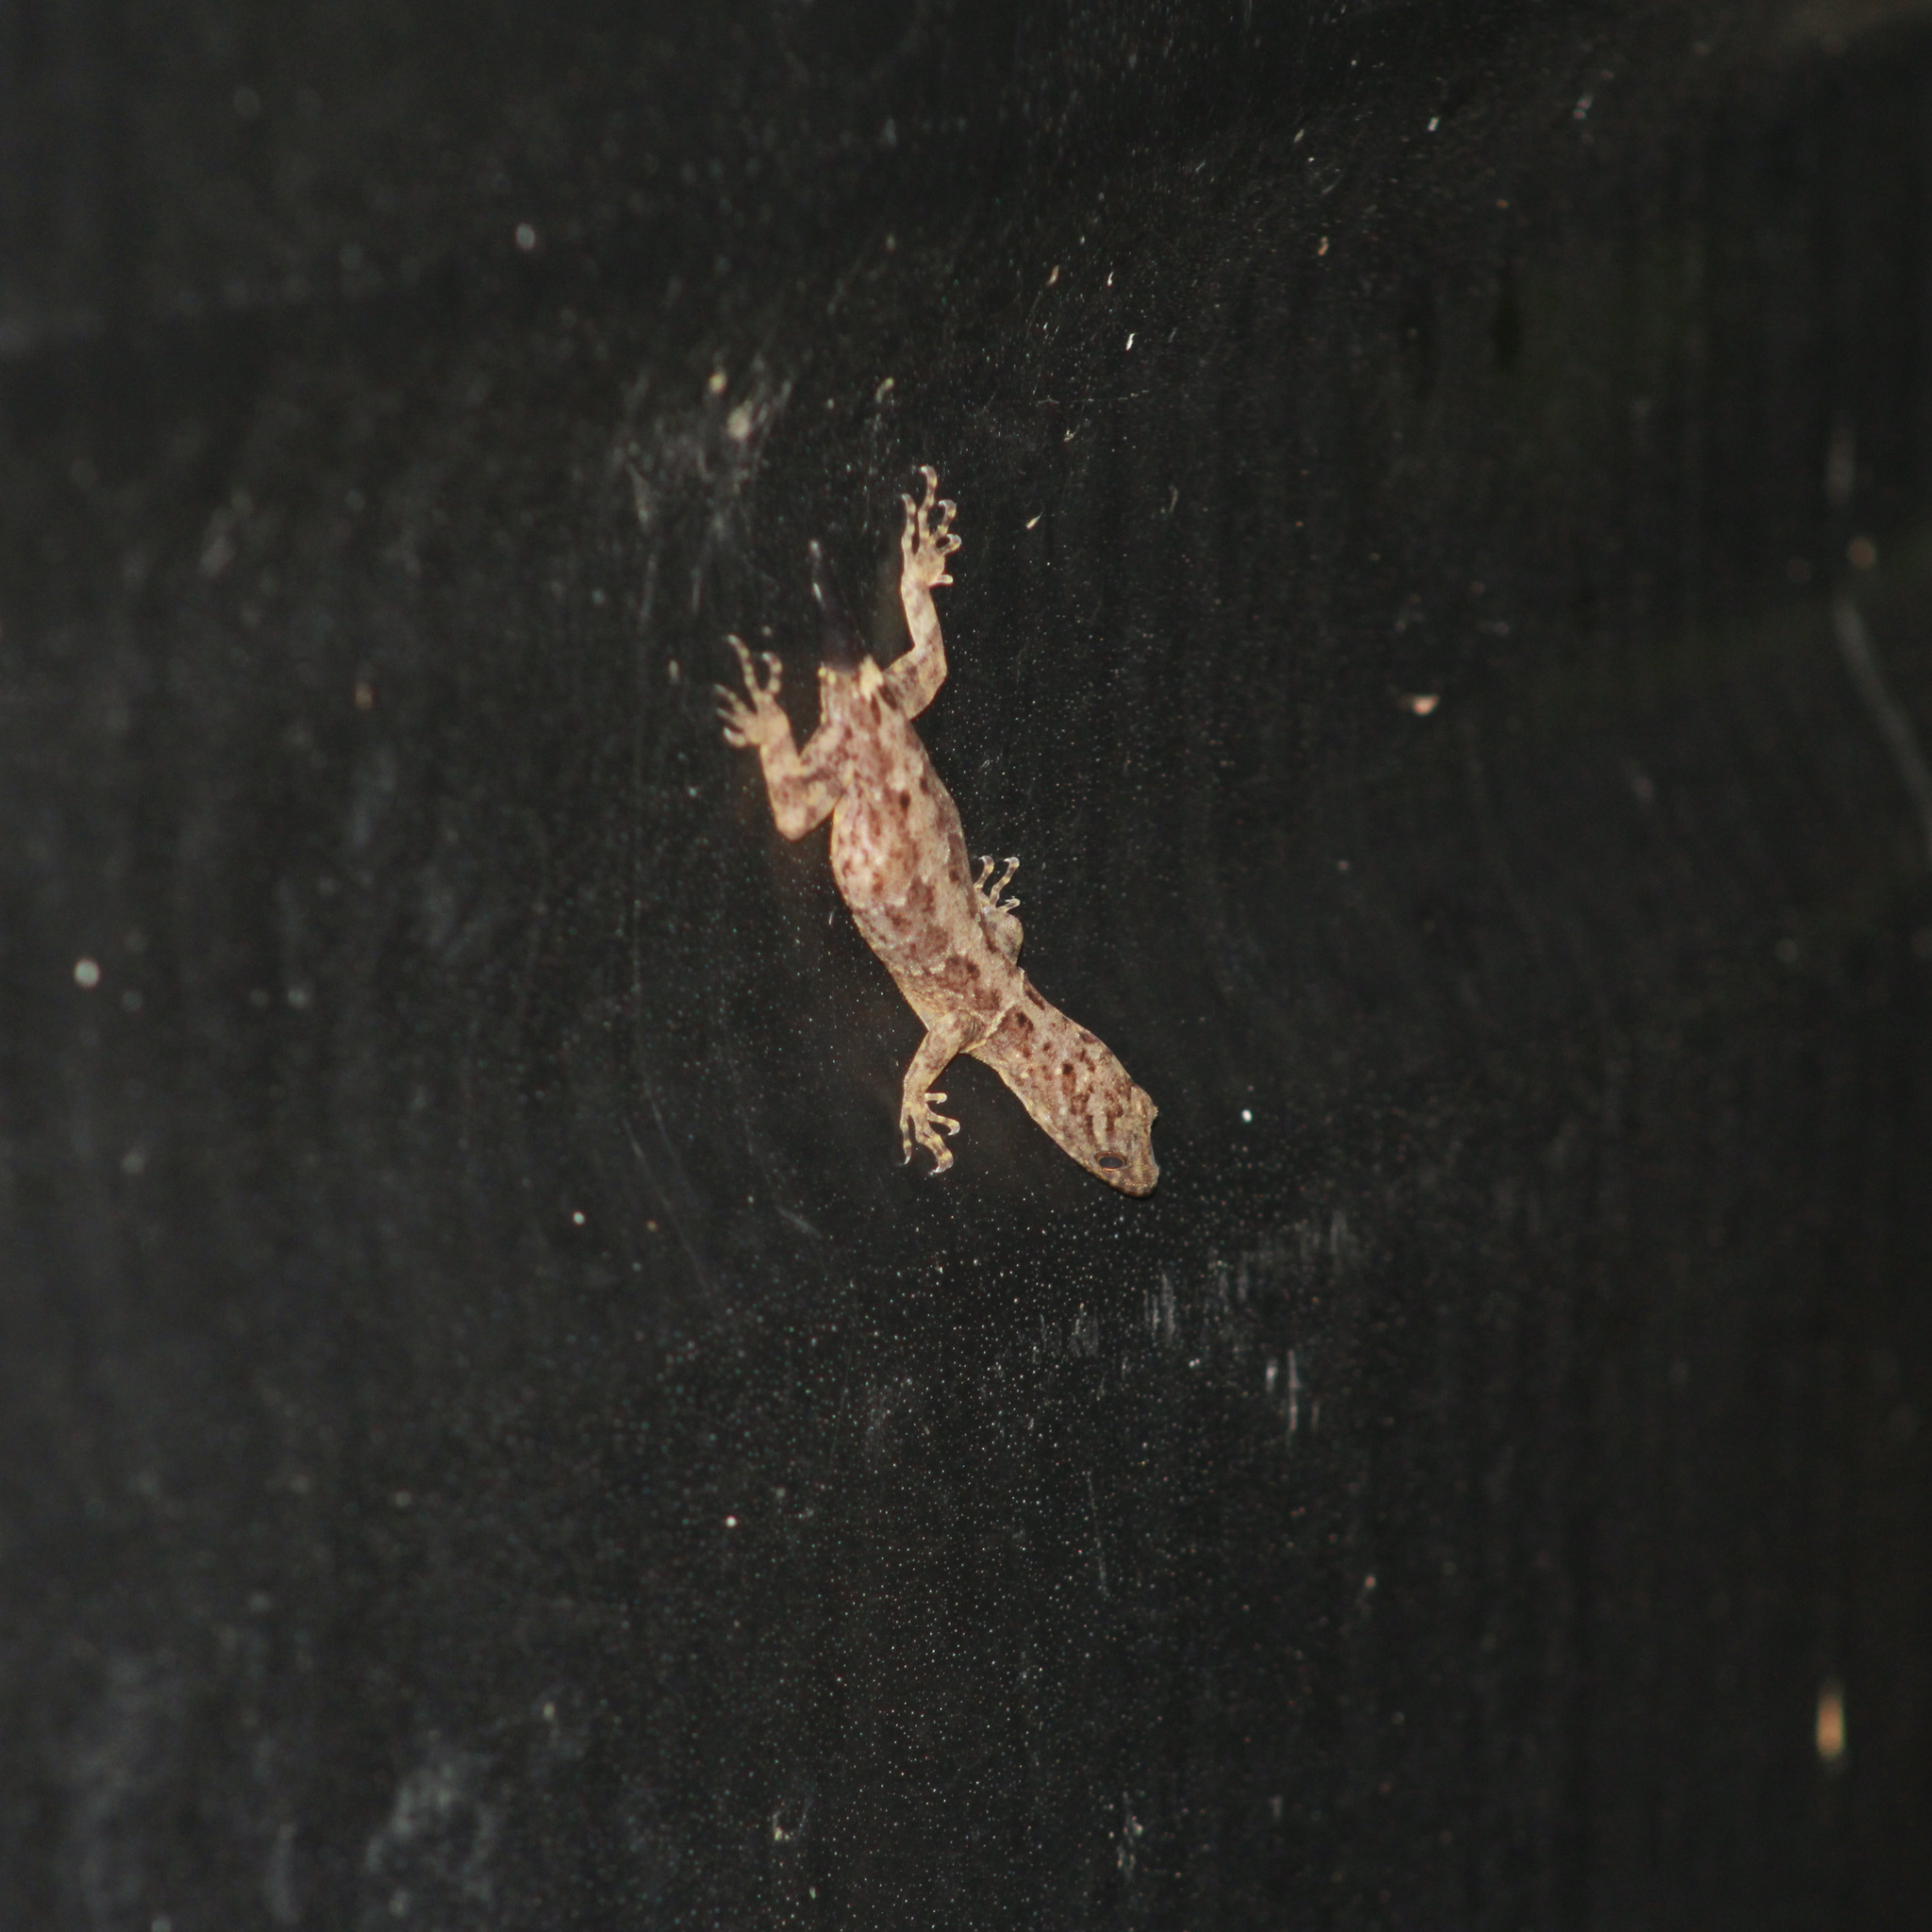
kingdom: Animalia
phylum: Chordata
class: Squamata
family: Sphaerodactylidae
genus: Gonatodes
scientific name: Gonatodes ceciliae
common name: Brilliant south american gecko
